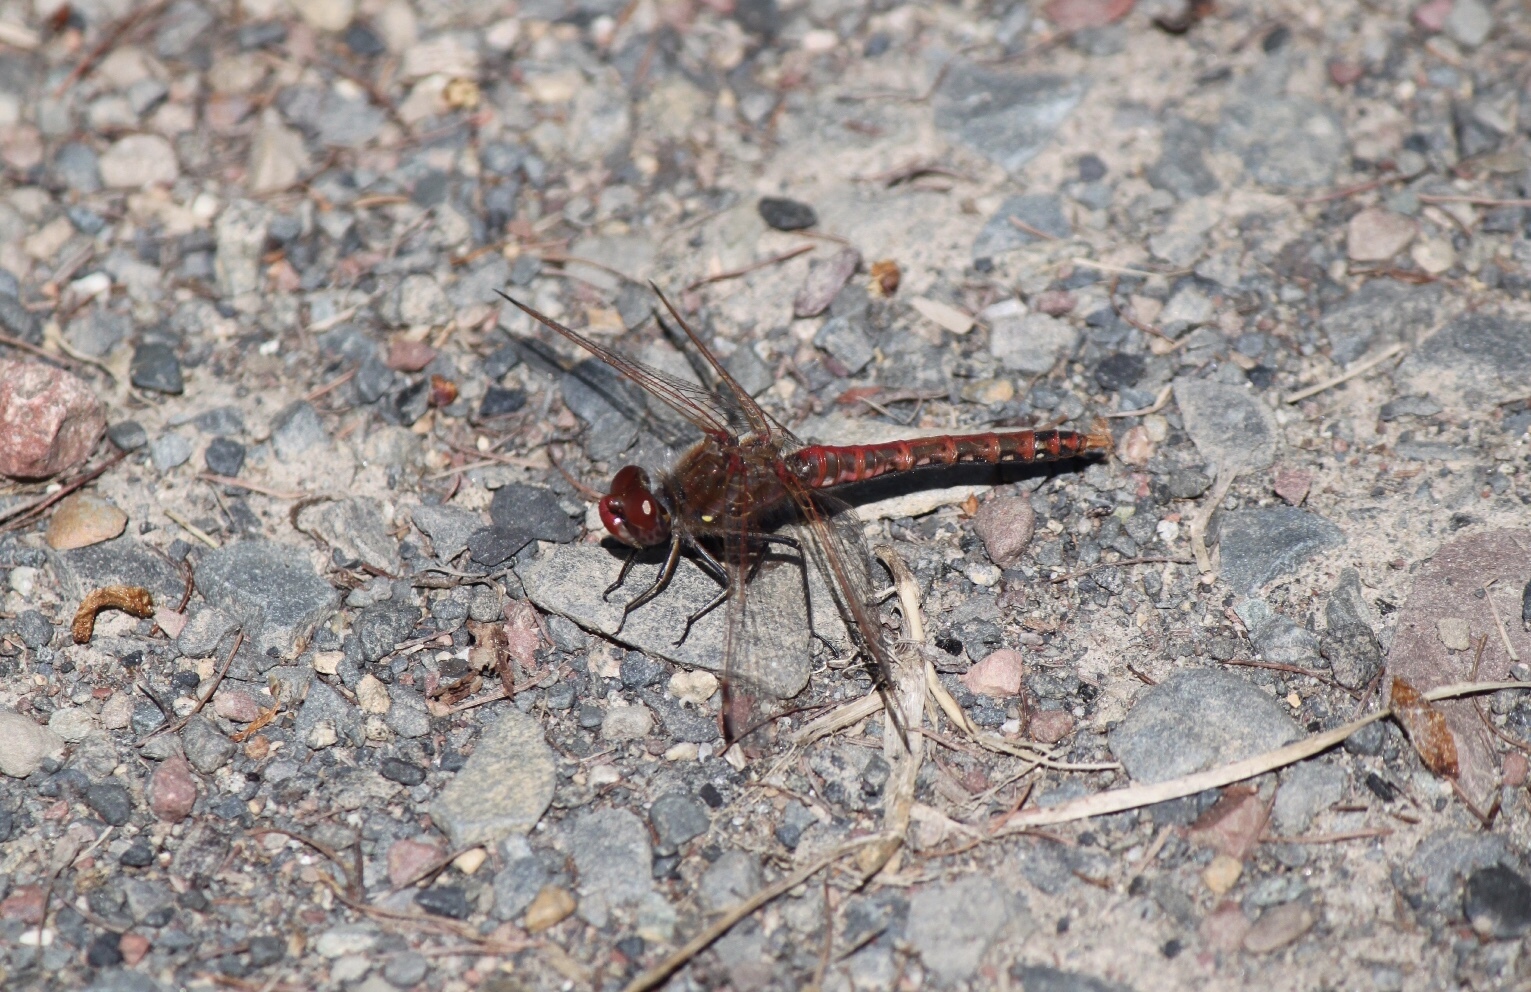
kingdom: Animalia
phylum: Arthropoda
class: Insecta
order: Odonata
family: Libellulidae
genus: Sympetrum
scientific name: Sympetrum corruptum
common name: Variegated meadowhawk
